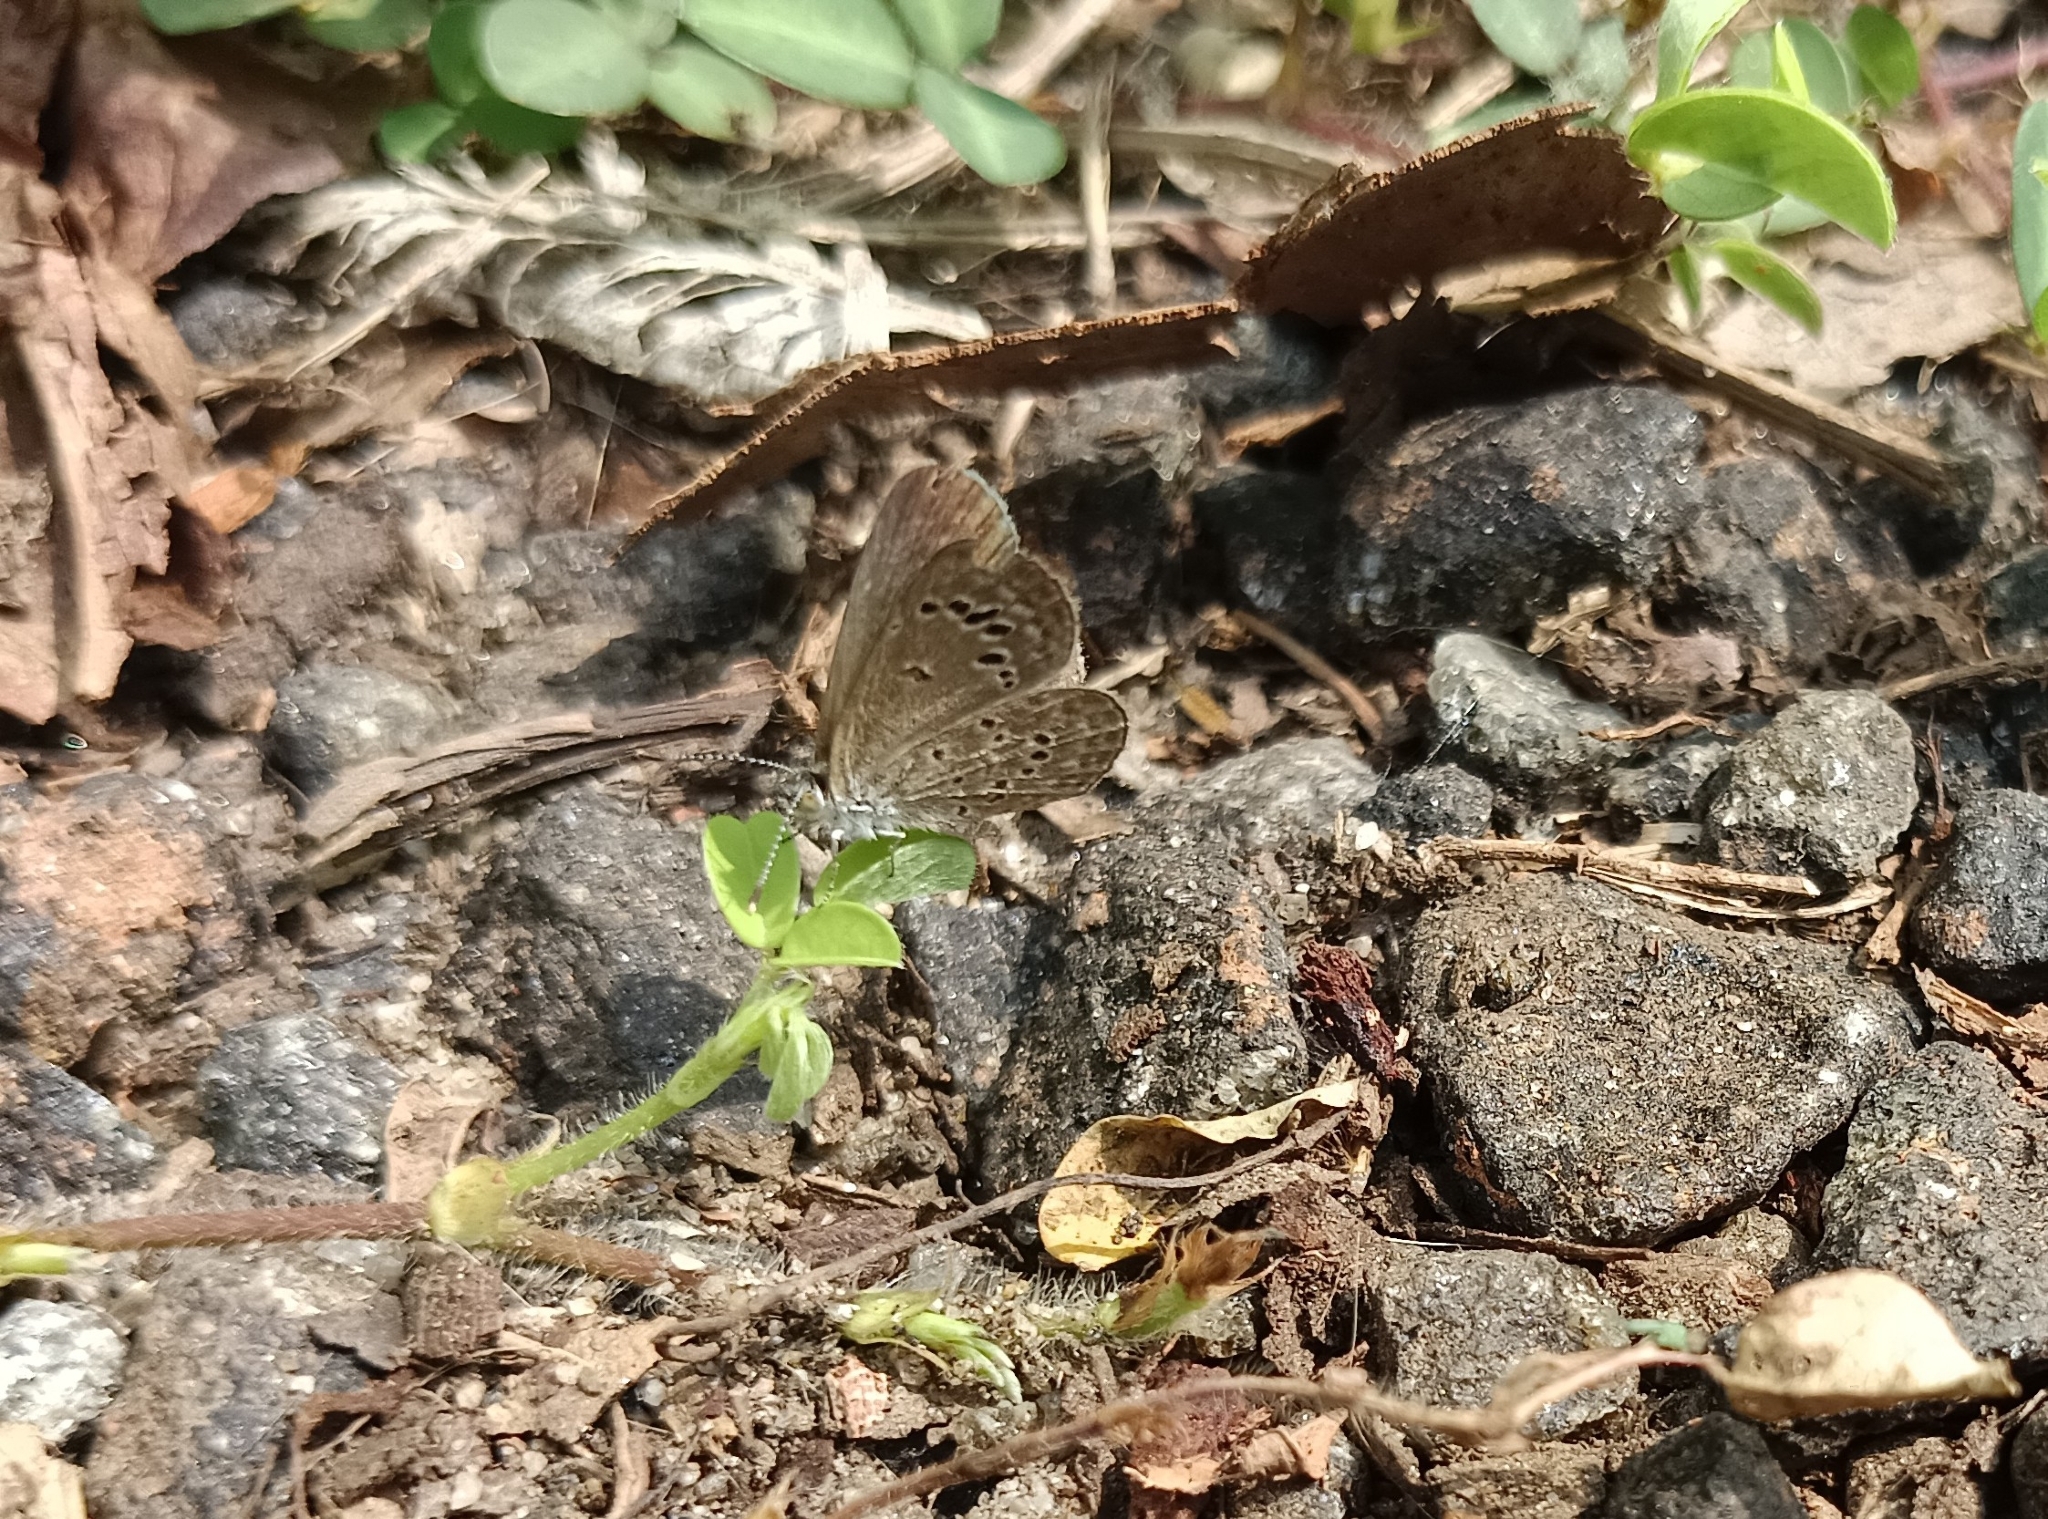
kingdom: Animalia
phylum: Arthropoda
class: Insecta
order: Lepidoptera
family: Lycaenidae
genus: Zizina
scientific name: Zizina otis
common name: Lesser grass blue
